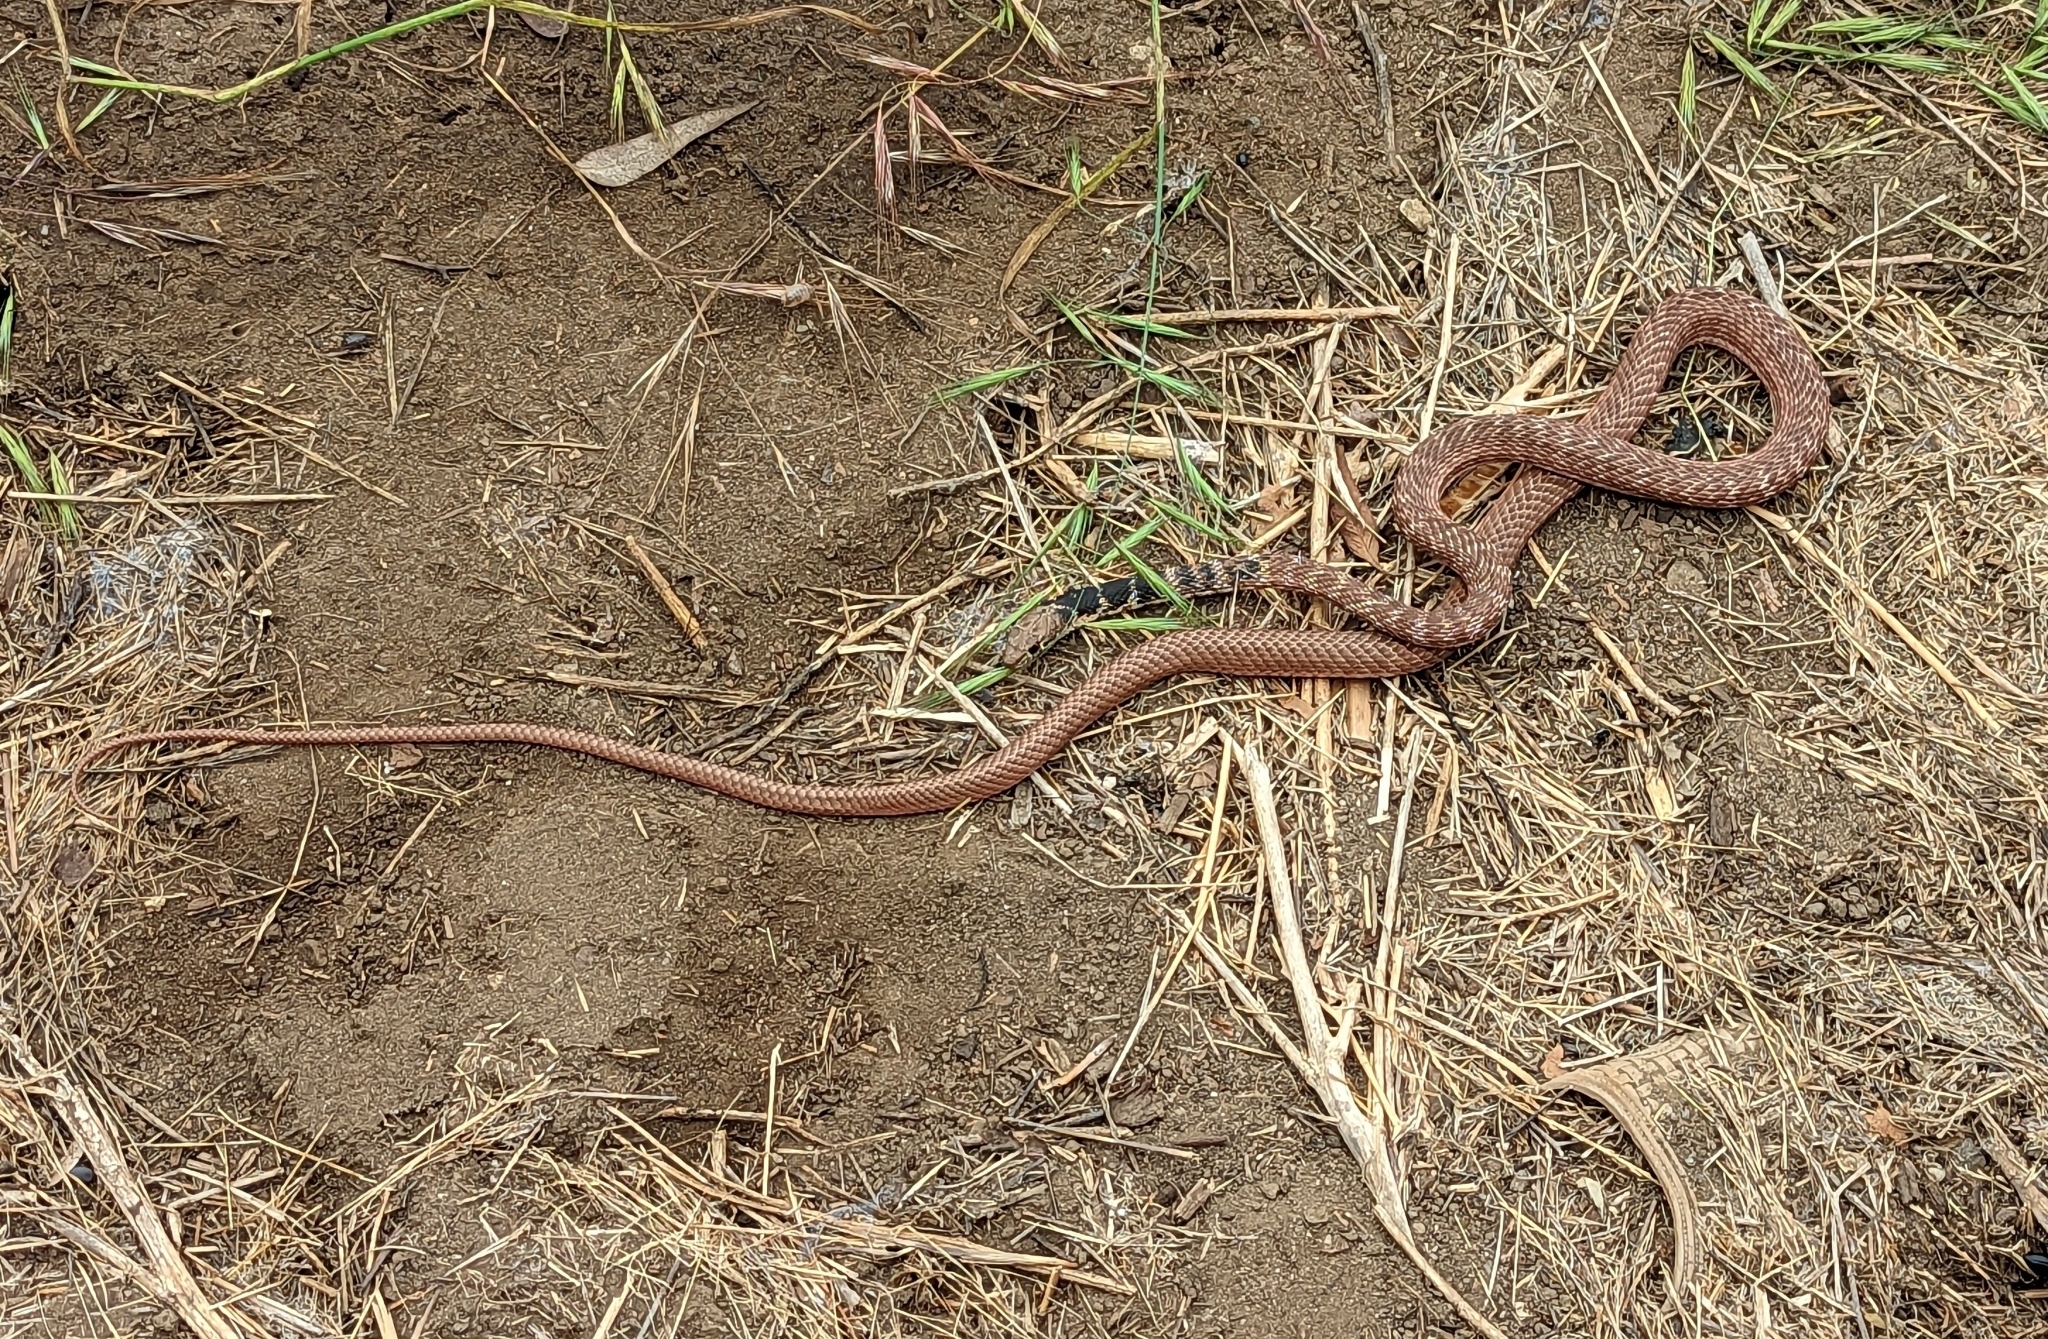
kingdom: Animalia
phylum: Chordata
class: Squamata
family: Colubridae
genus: Masticophis
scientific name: Masticophis flagellum
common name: Coachwhip
